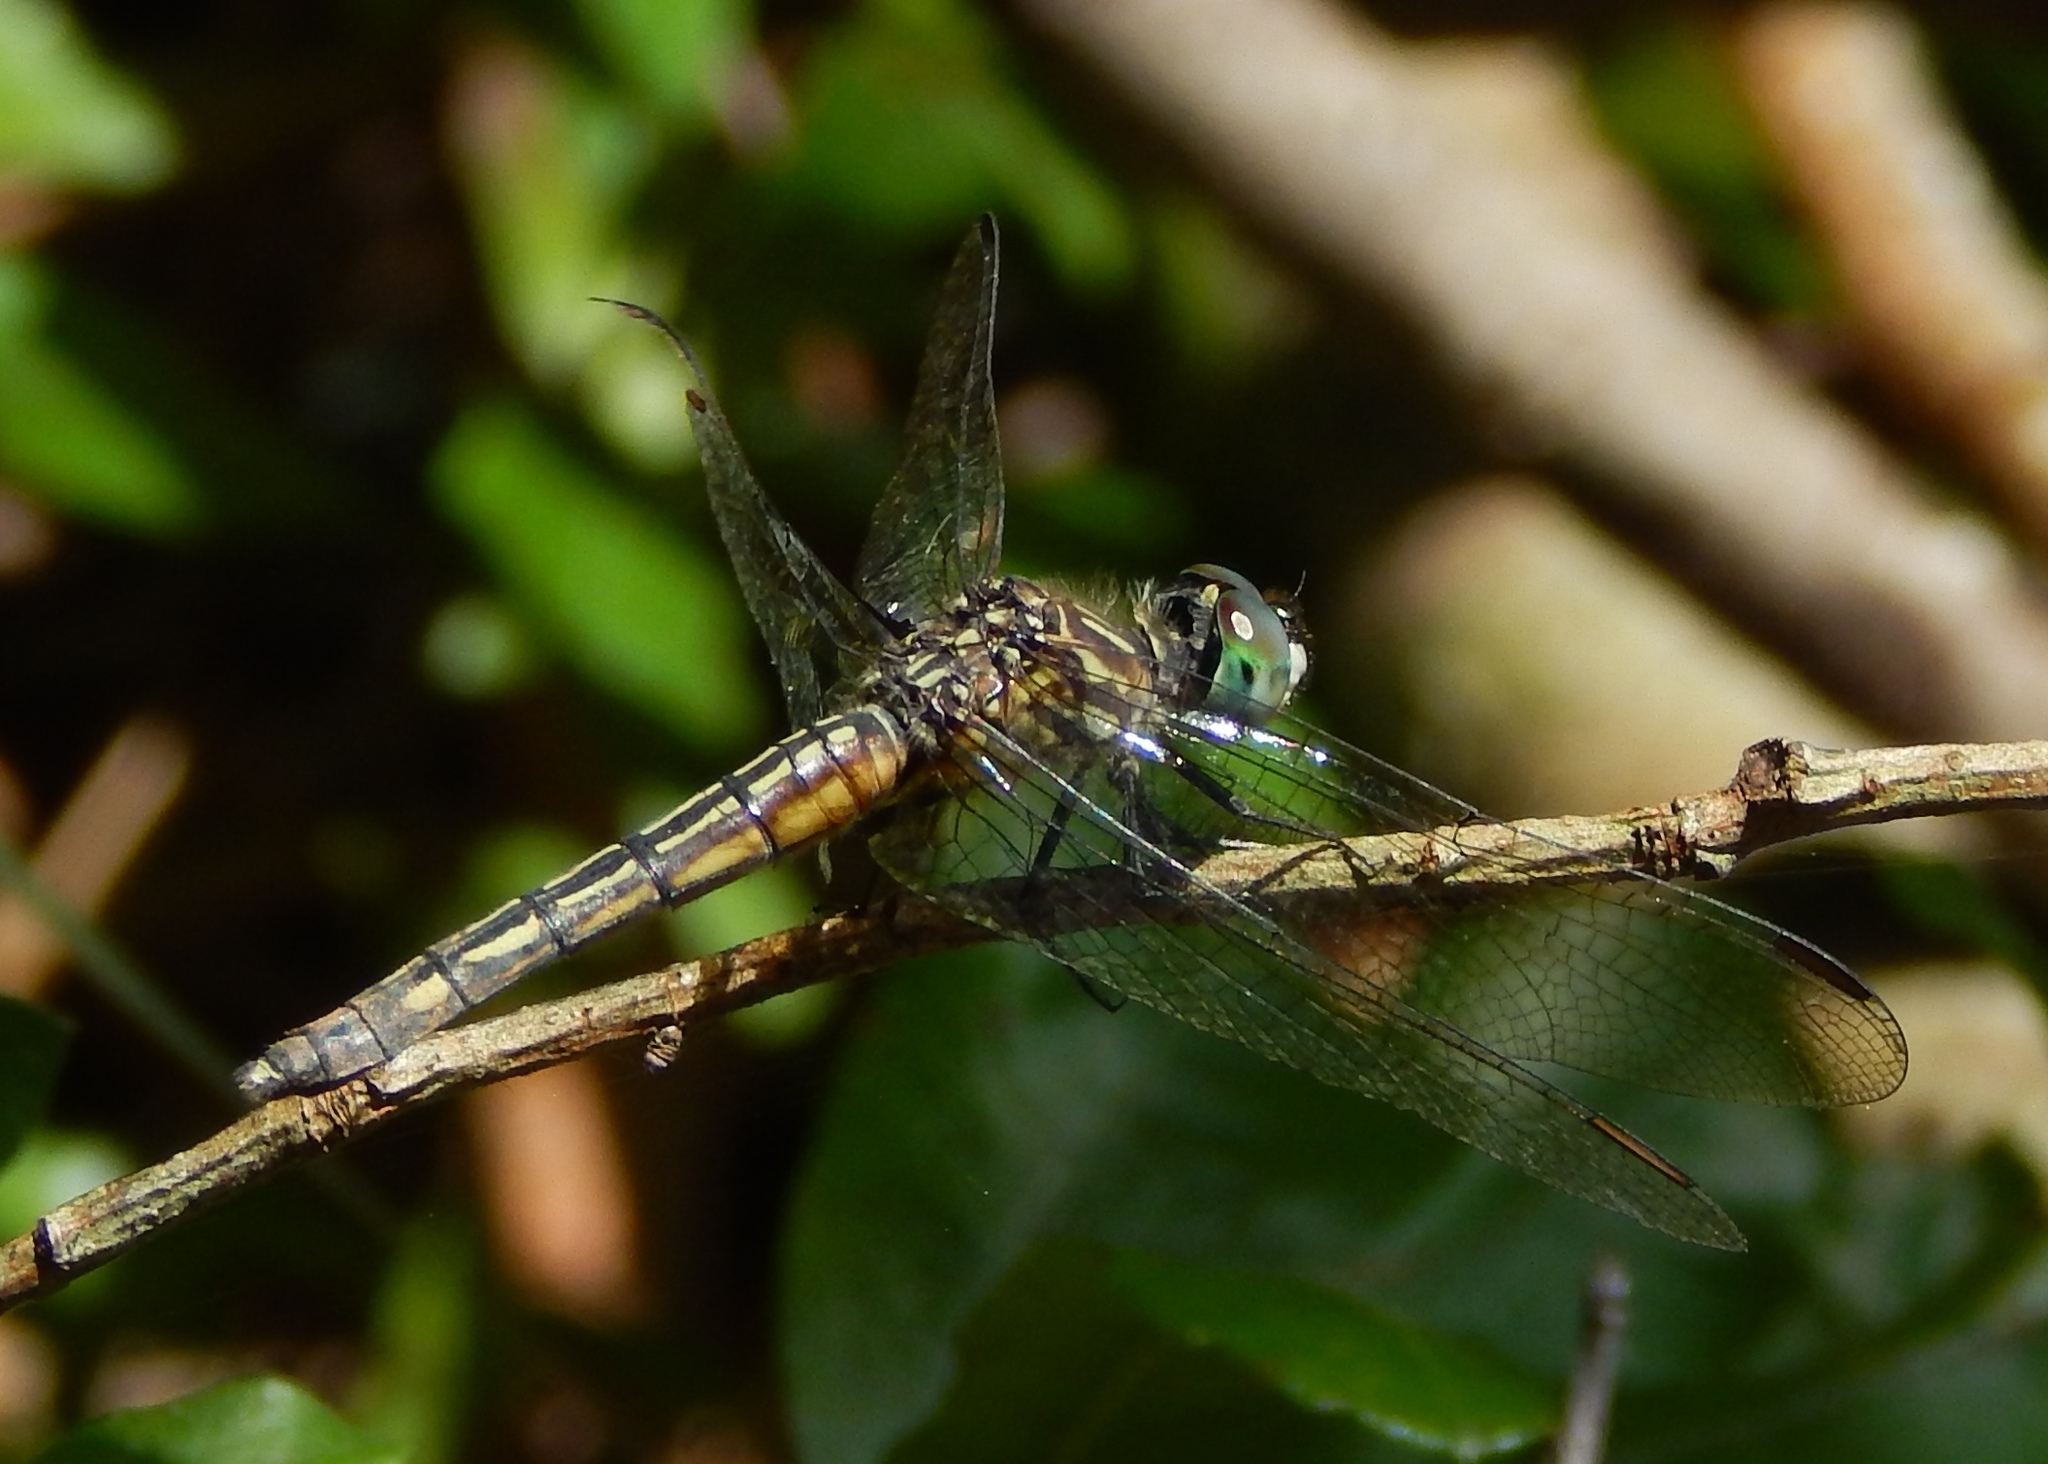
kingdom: Animalia
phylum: Arthropoda
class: Insecta
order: Odonata
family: Libellulidae
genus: Pachydiplax
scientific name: Pachydiplax longipennis
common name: Blue dasher
